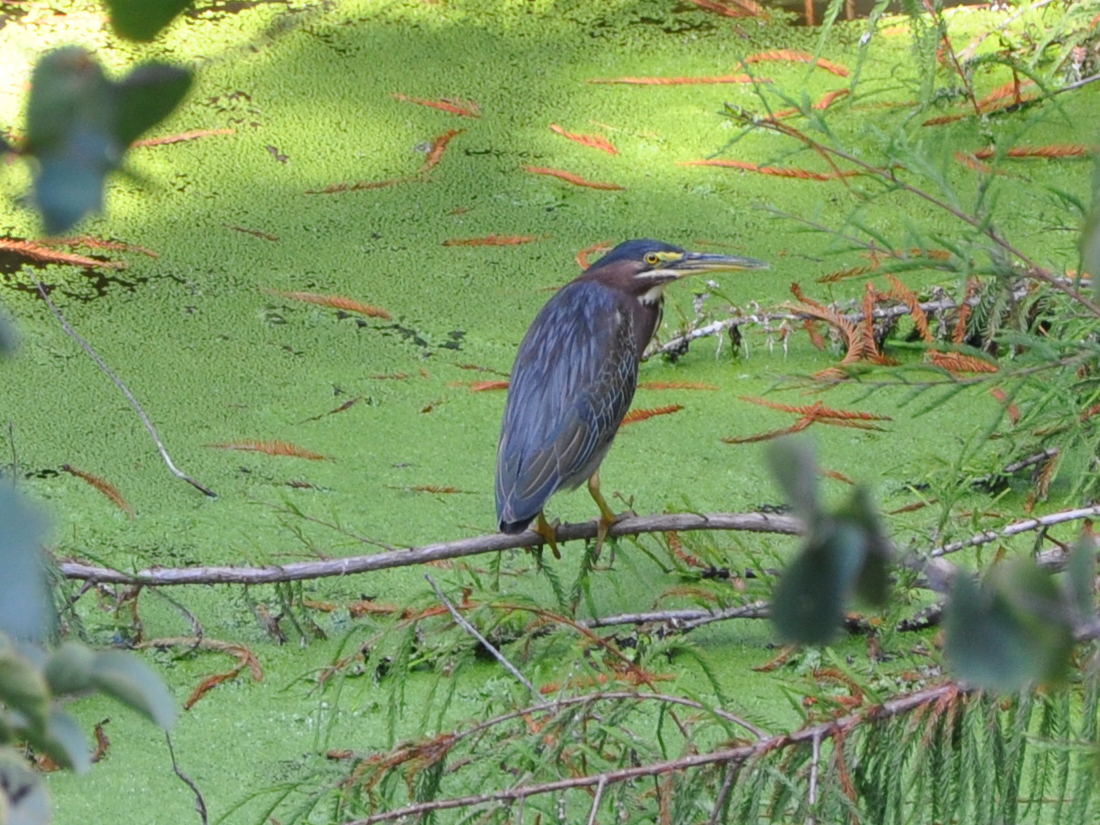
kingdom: Animalia
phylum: Chordata
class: Aves
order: Pelecaniformes
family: Ardeidae
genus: Butorides
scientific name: Butorides virescens
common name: Green heron
